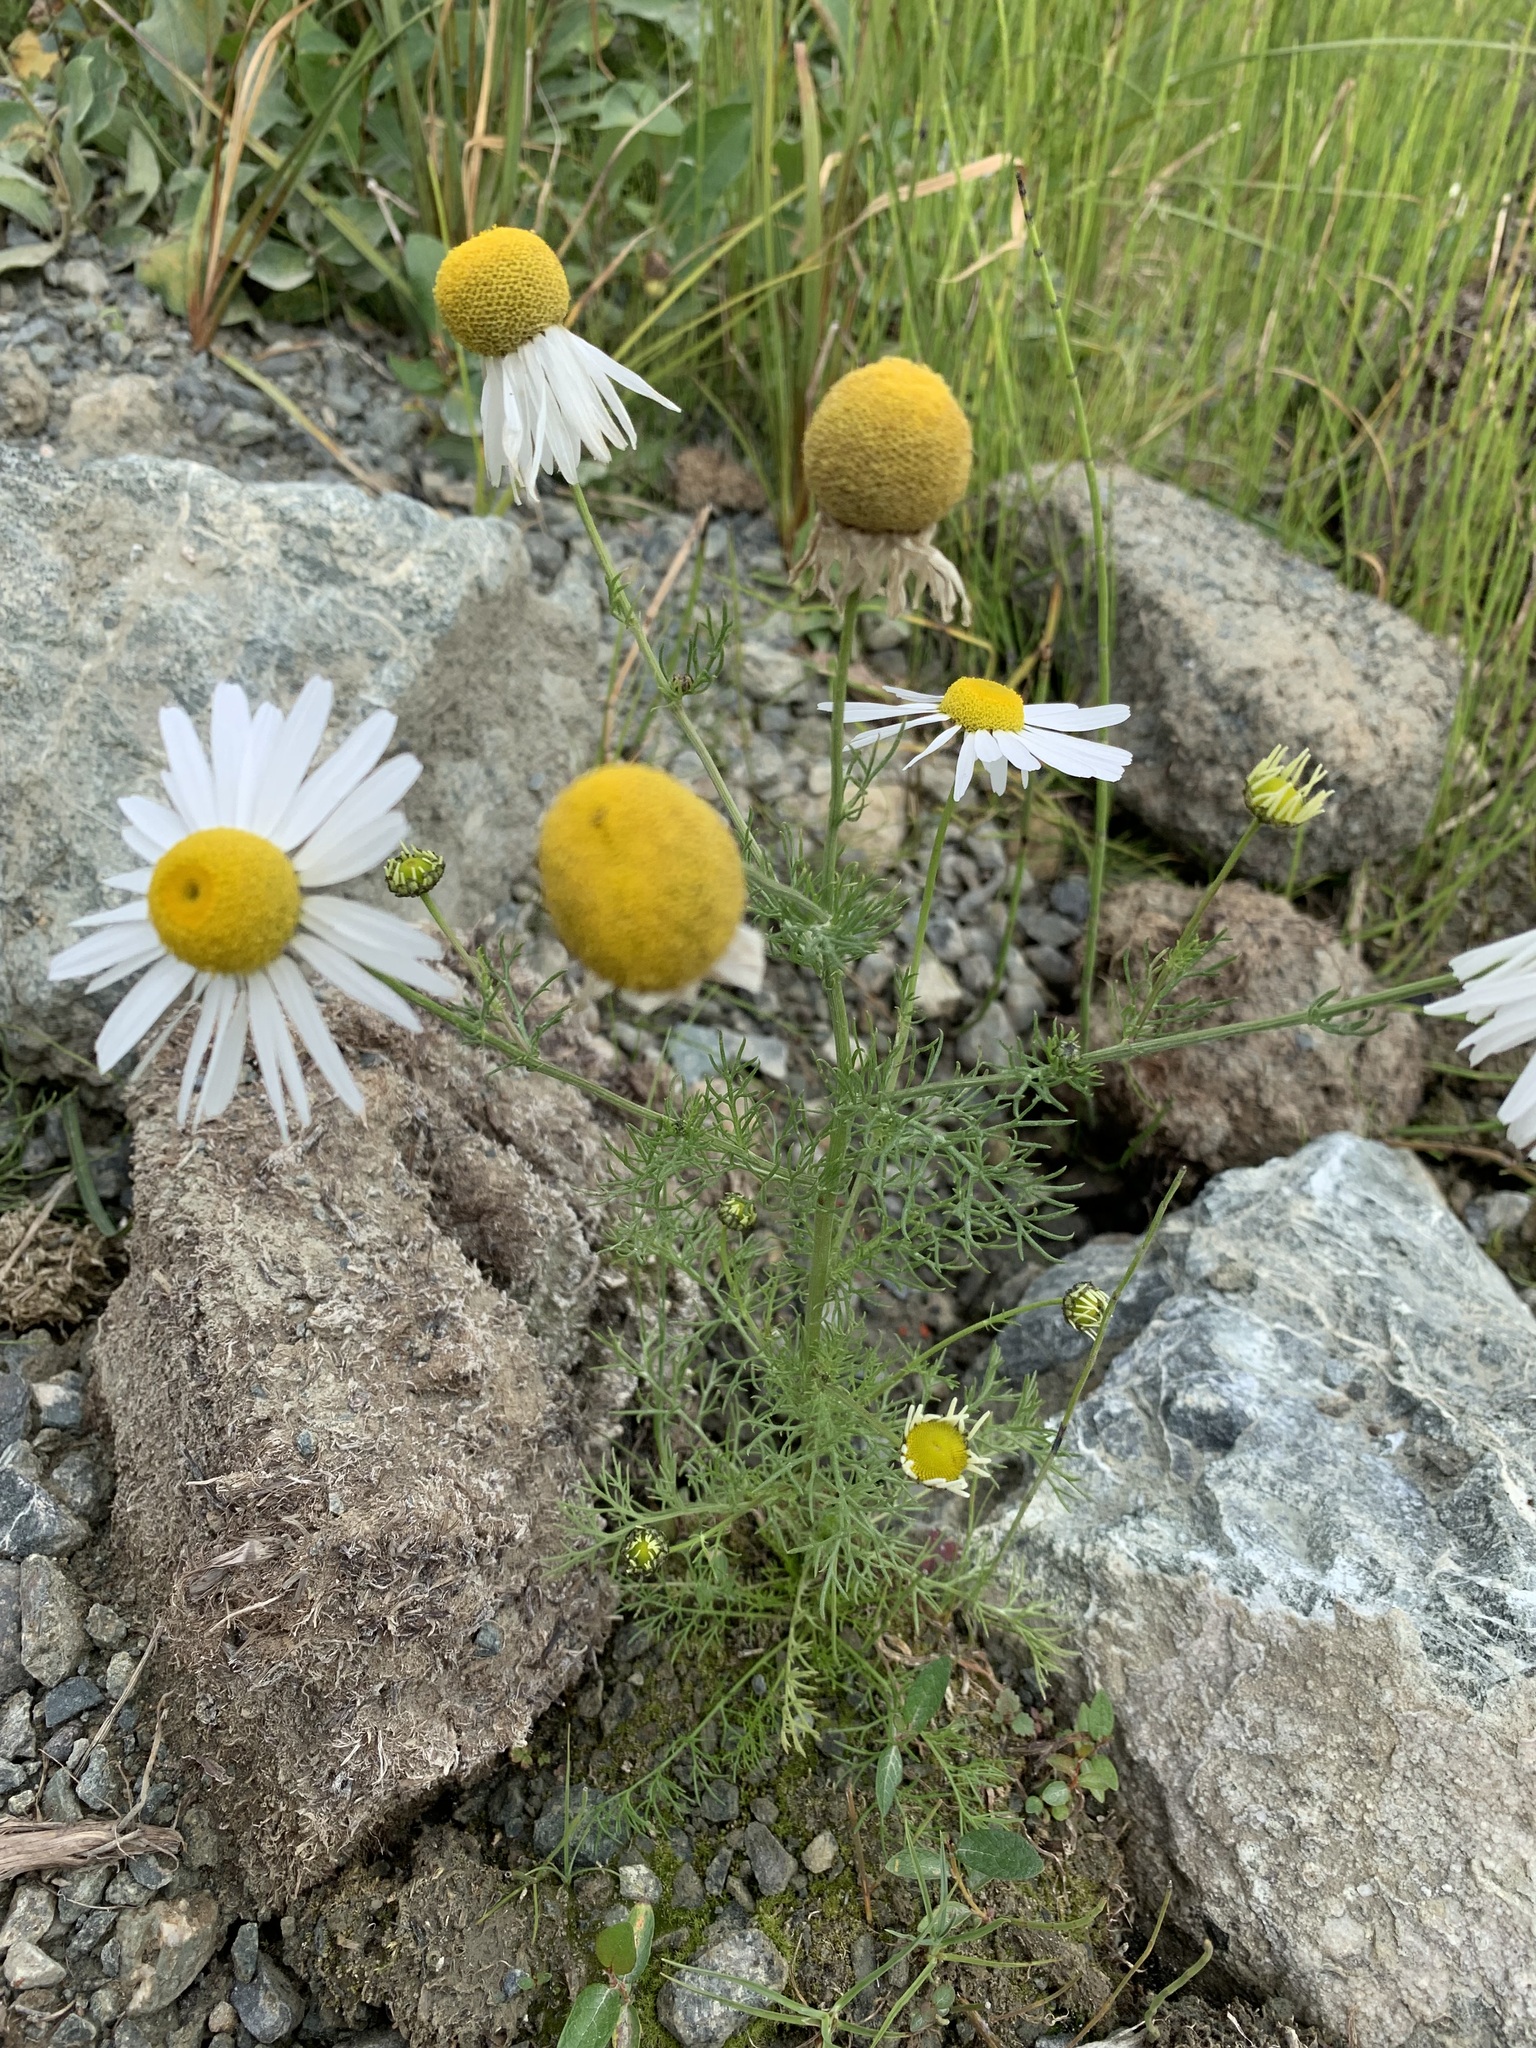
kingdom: Plantae
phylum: Tracheophyta
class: Magnoliopsida
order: Asterales
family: Asteraceae
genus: Tripleurospermum
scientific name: Tripleurospermum hookeri
